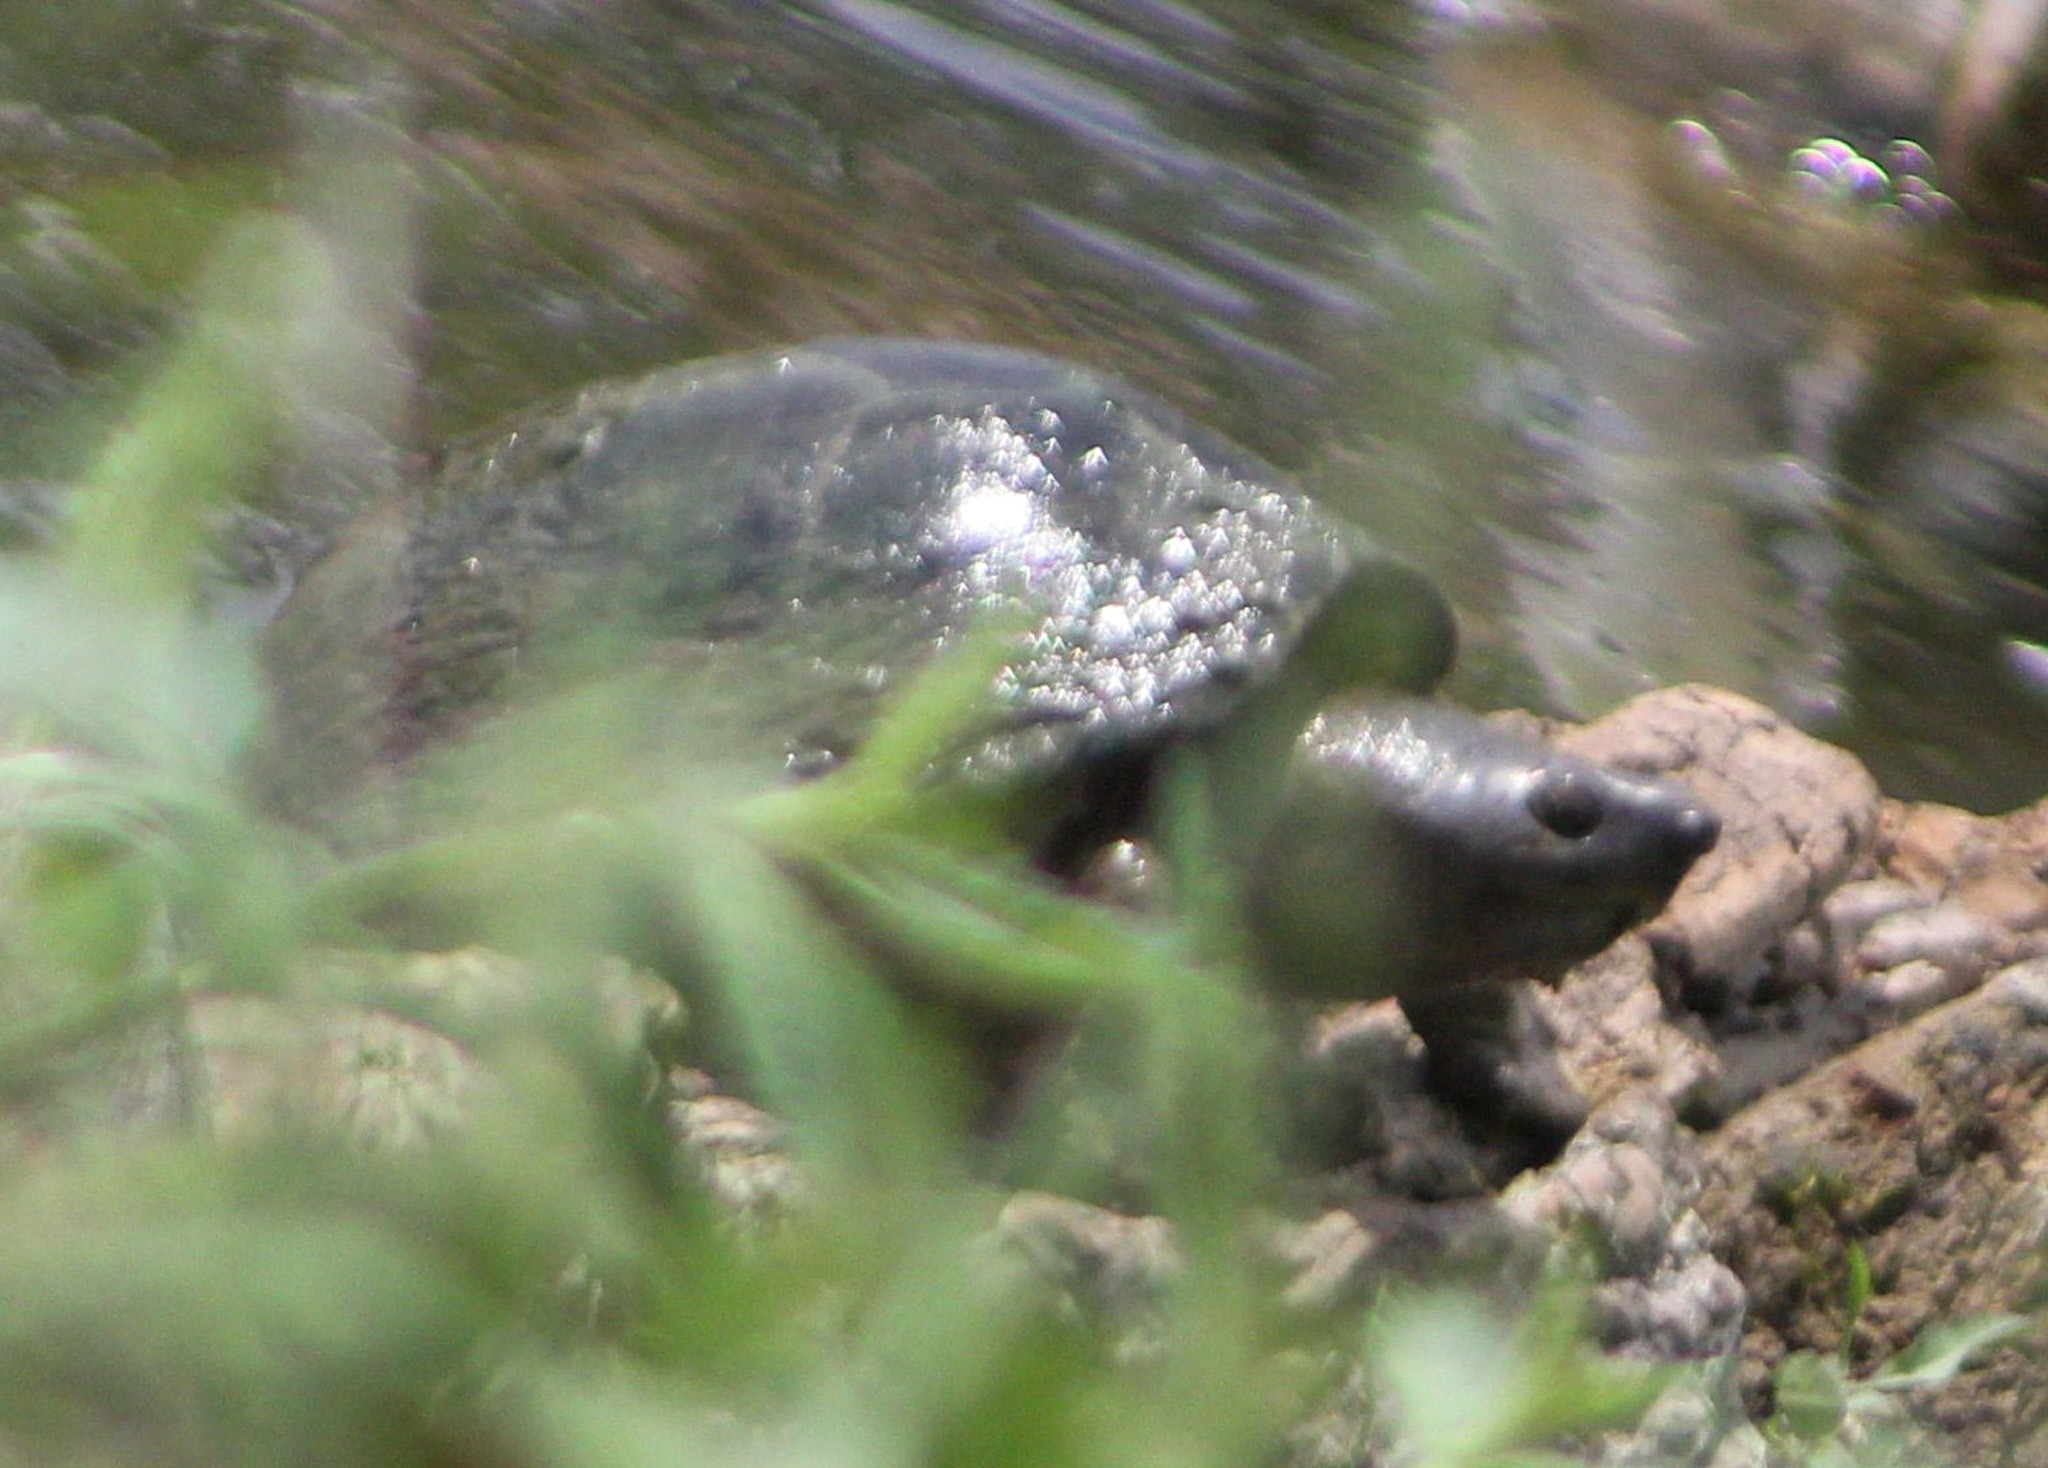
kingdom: Animalia
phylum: Chordata
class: Testudines
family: Kinosternidae
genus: Sternotherus
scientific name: Sternotherus carinatus
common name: Razor-backed musk turtle
